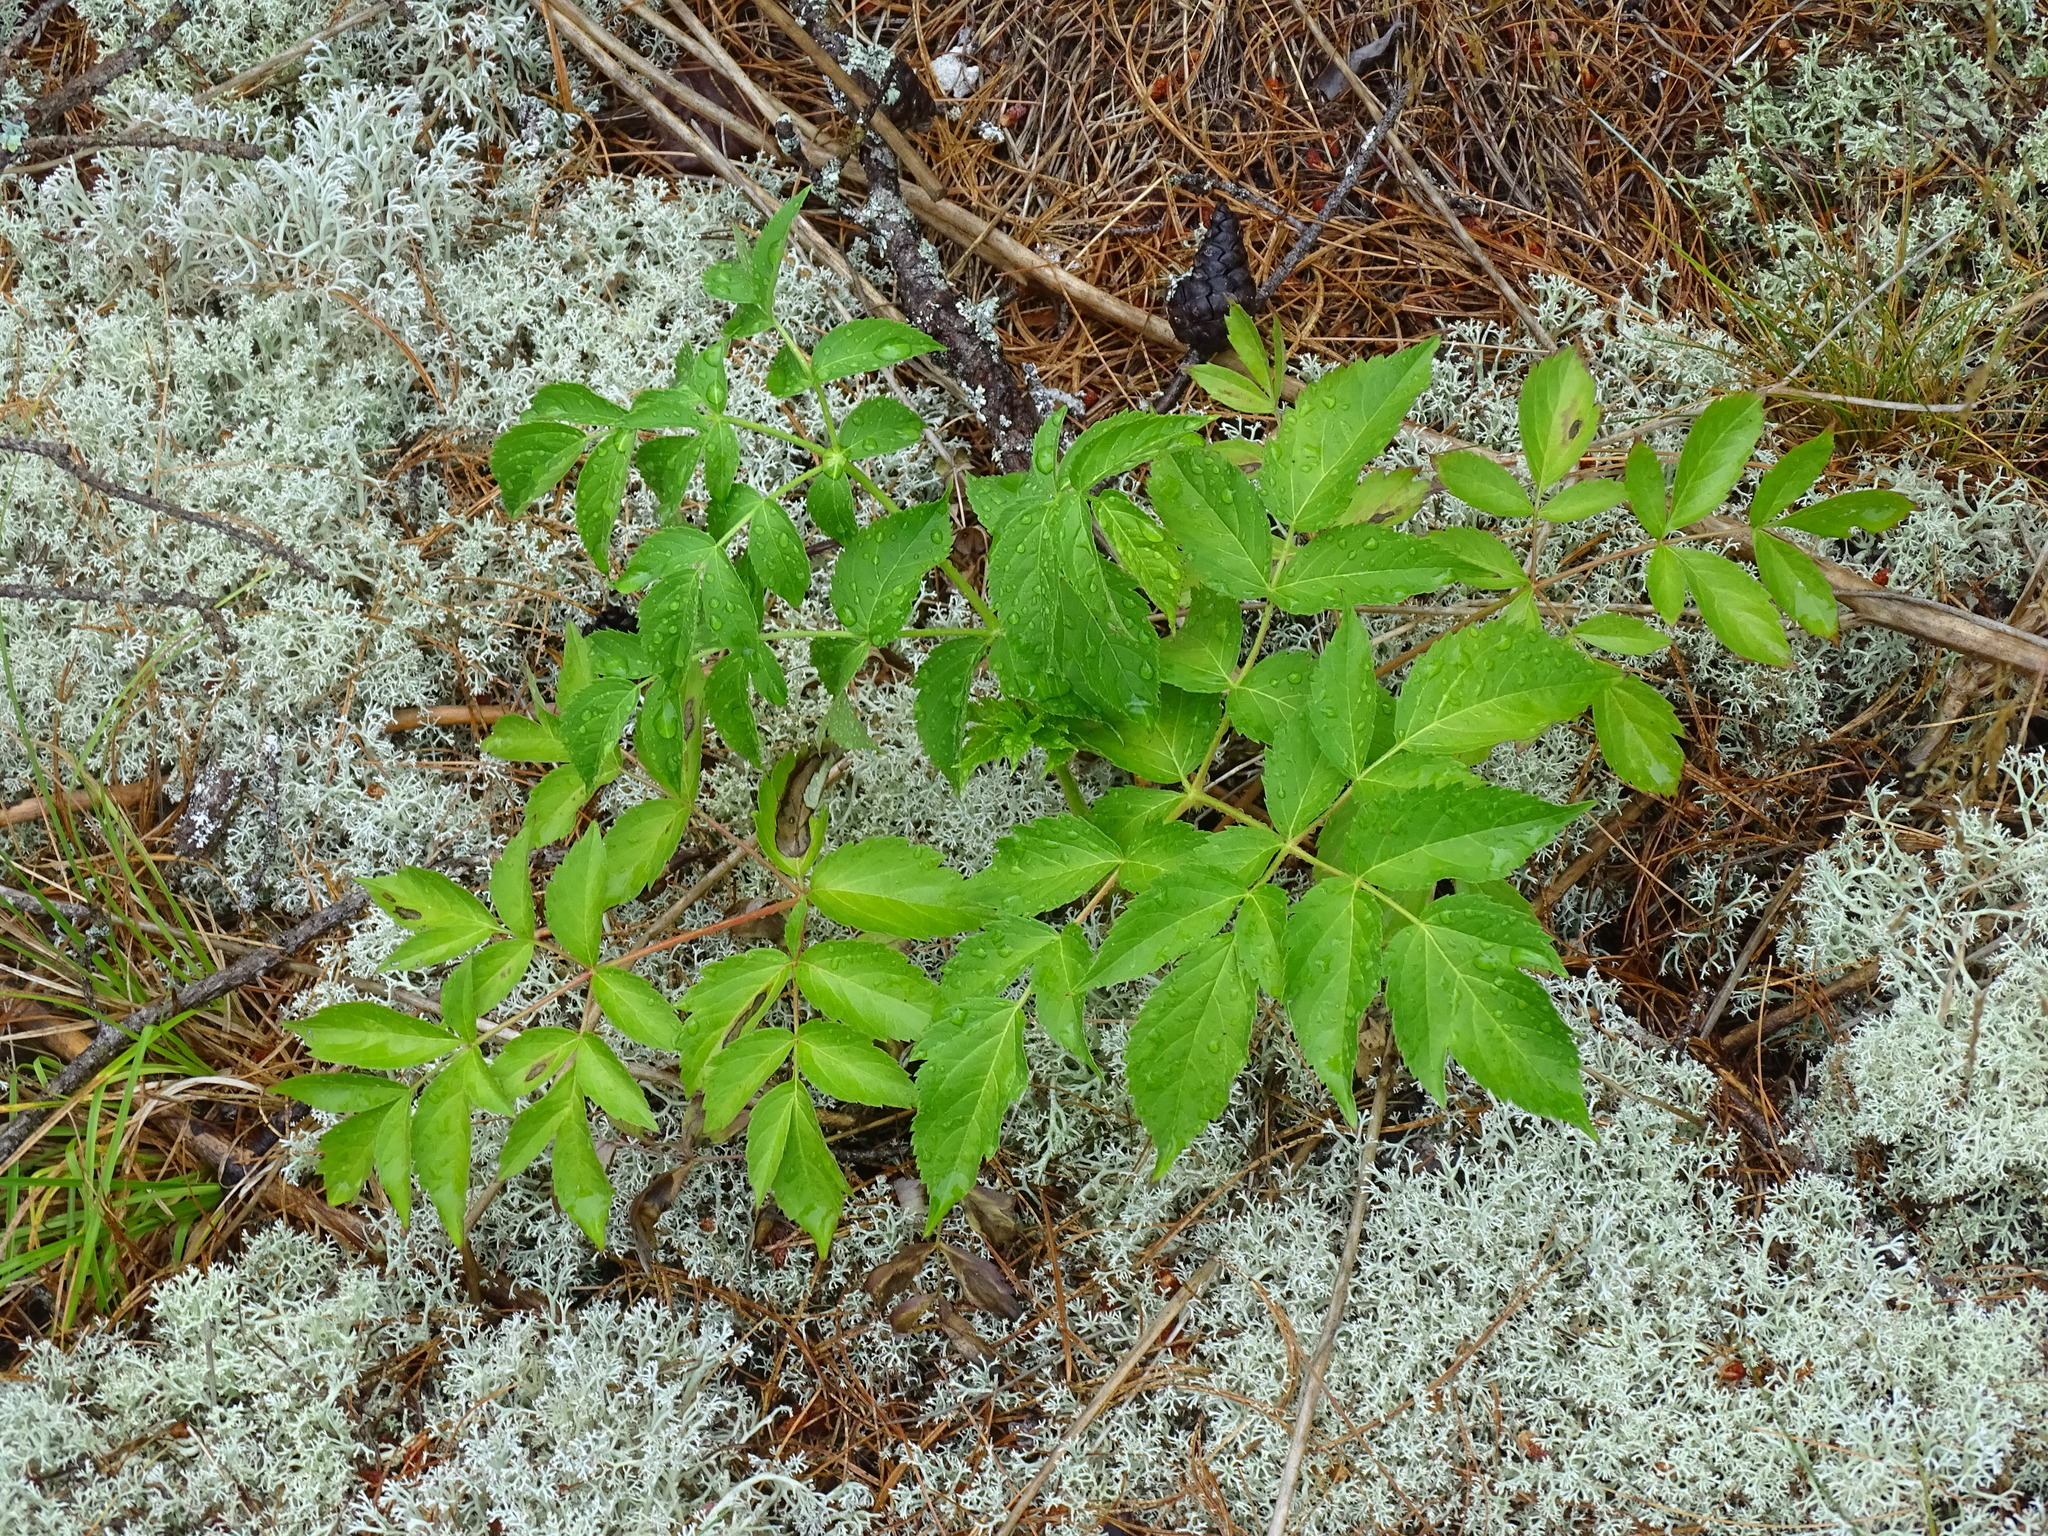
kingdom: Plantae
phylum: Tracheophyta
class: Magnoliopsida
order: Apiales
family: Araliaceae
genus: Aralia
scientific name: Aralia hispida
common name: Bristly sarsaparilla
